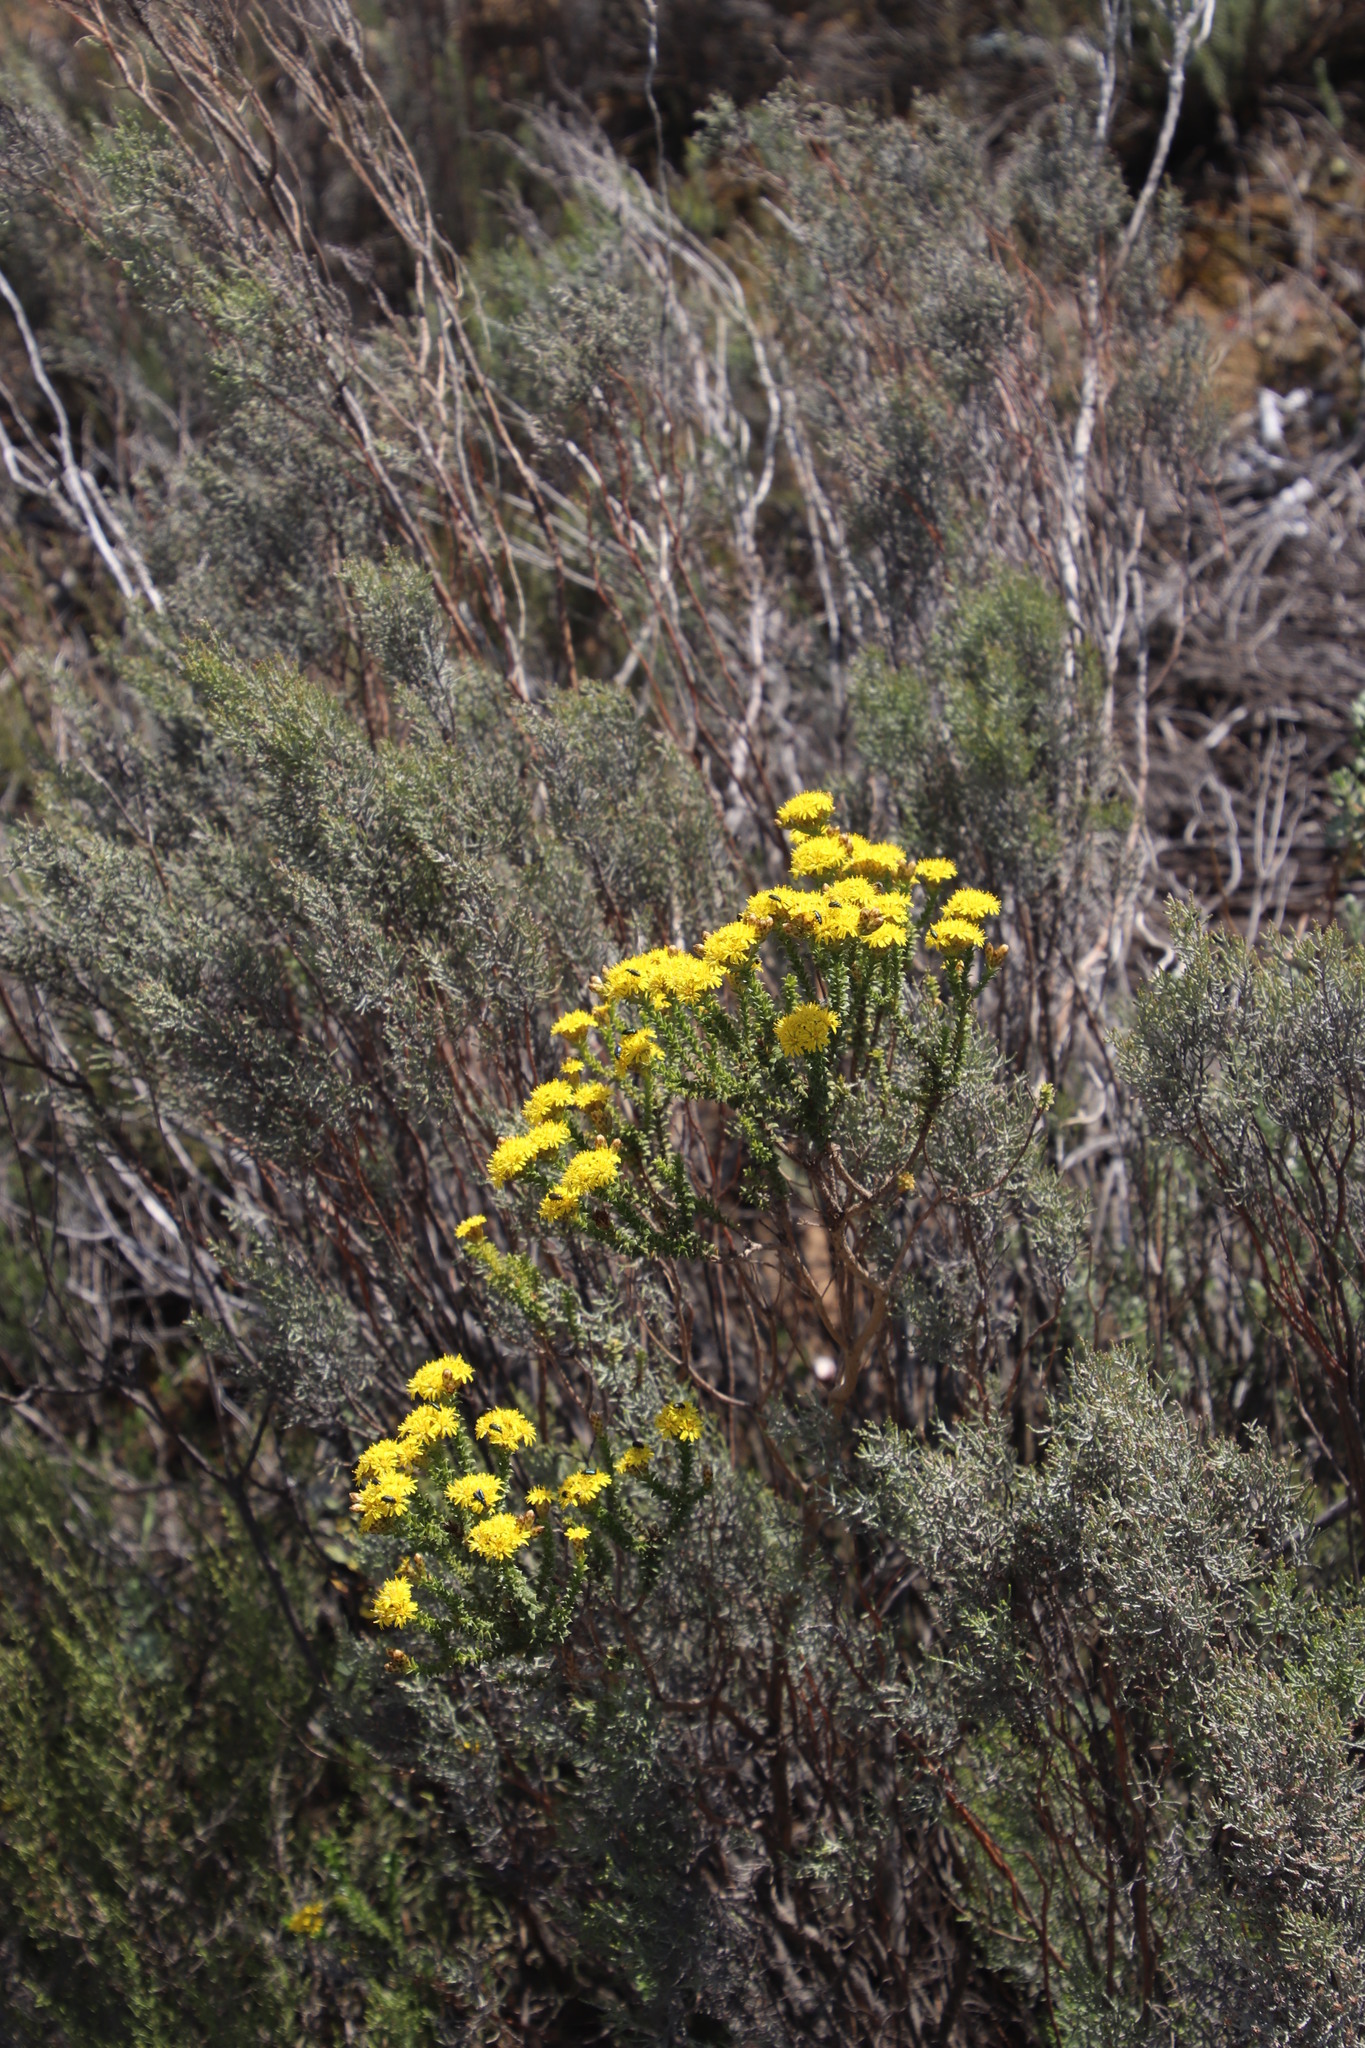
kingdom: Plantae
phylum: Tracheophyta
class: Magnoliopsida
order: Asterales
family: Asteraceae
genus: Oedera
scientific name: Oedera squarrosa
